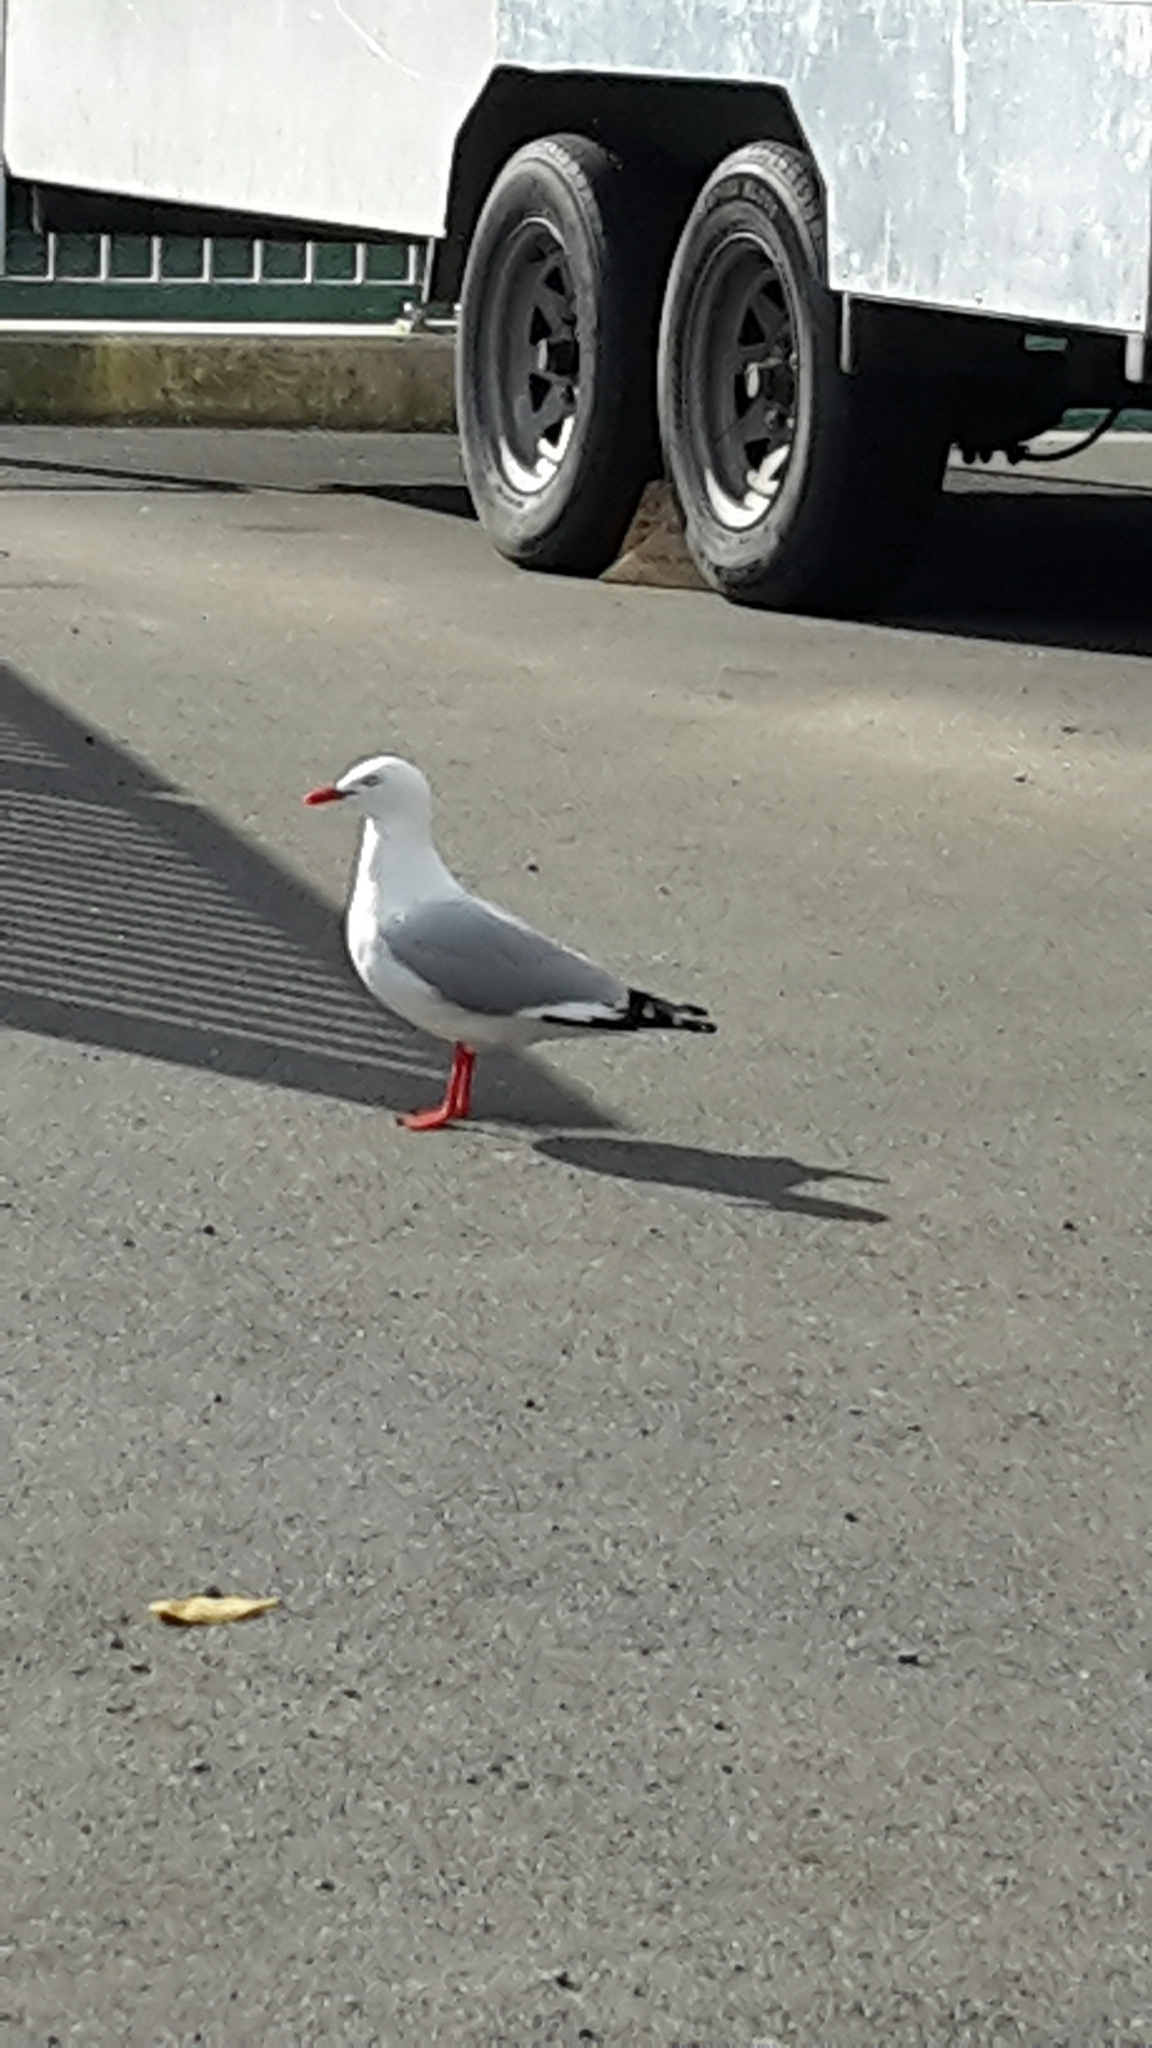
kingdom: Animalia
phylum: Chordata
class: Aves
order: Charadriiformes
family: Laridae
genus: Chroicocephalus
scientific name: Chroicocephalus novaehollandiae
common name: Silver gull
